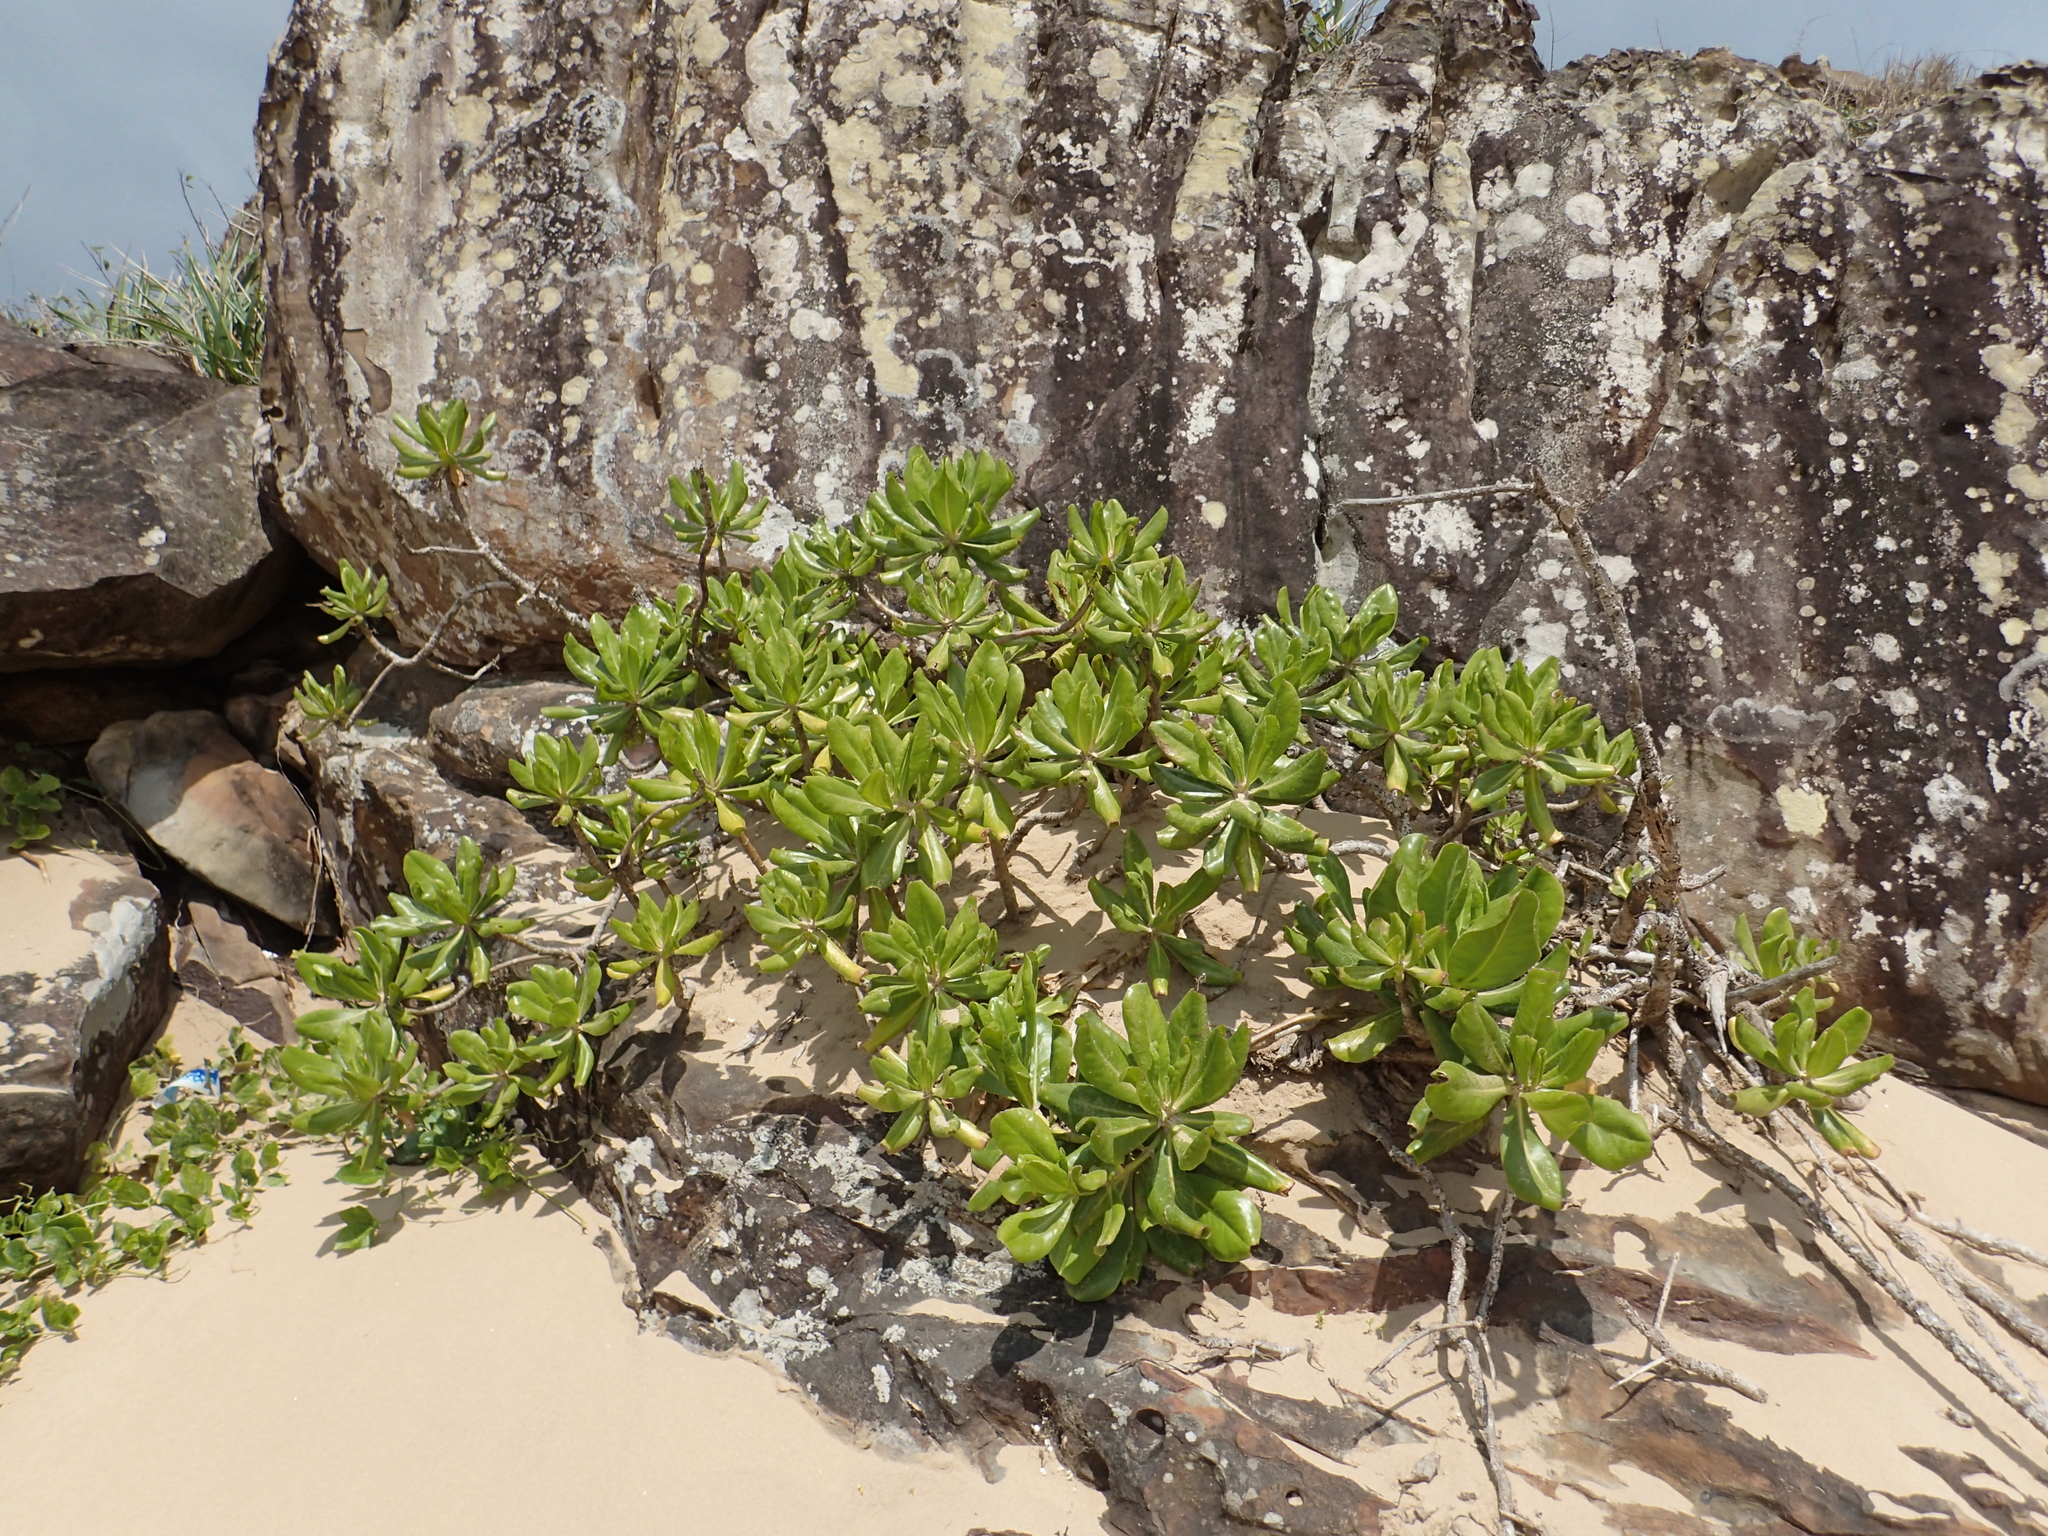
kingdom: Plantae
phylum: Tracheophyta
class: Magnoliopsida
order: Asterales
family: Goodeniaceae
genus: Scaevola
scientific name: Scaevola taccada
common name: Sea lettucetree
